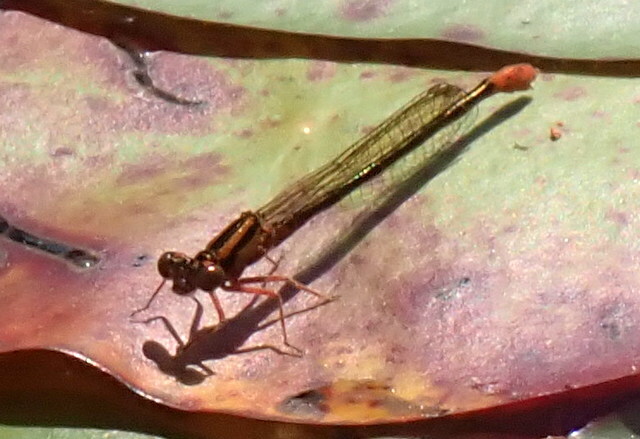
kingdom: Animalia
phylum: Arthropoda
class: Insecta
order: Odonata
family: Coenagrionidae
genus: Ischnura
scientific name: Ischnura kellicotti
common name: Lilypad forktail
